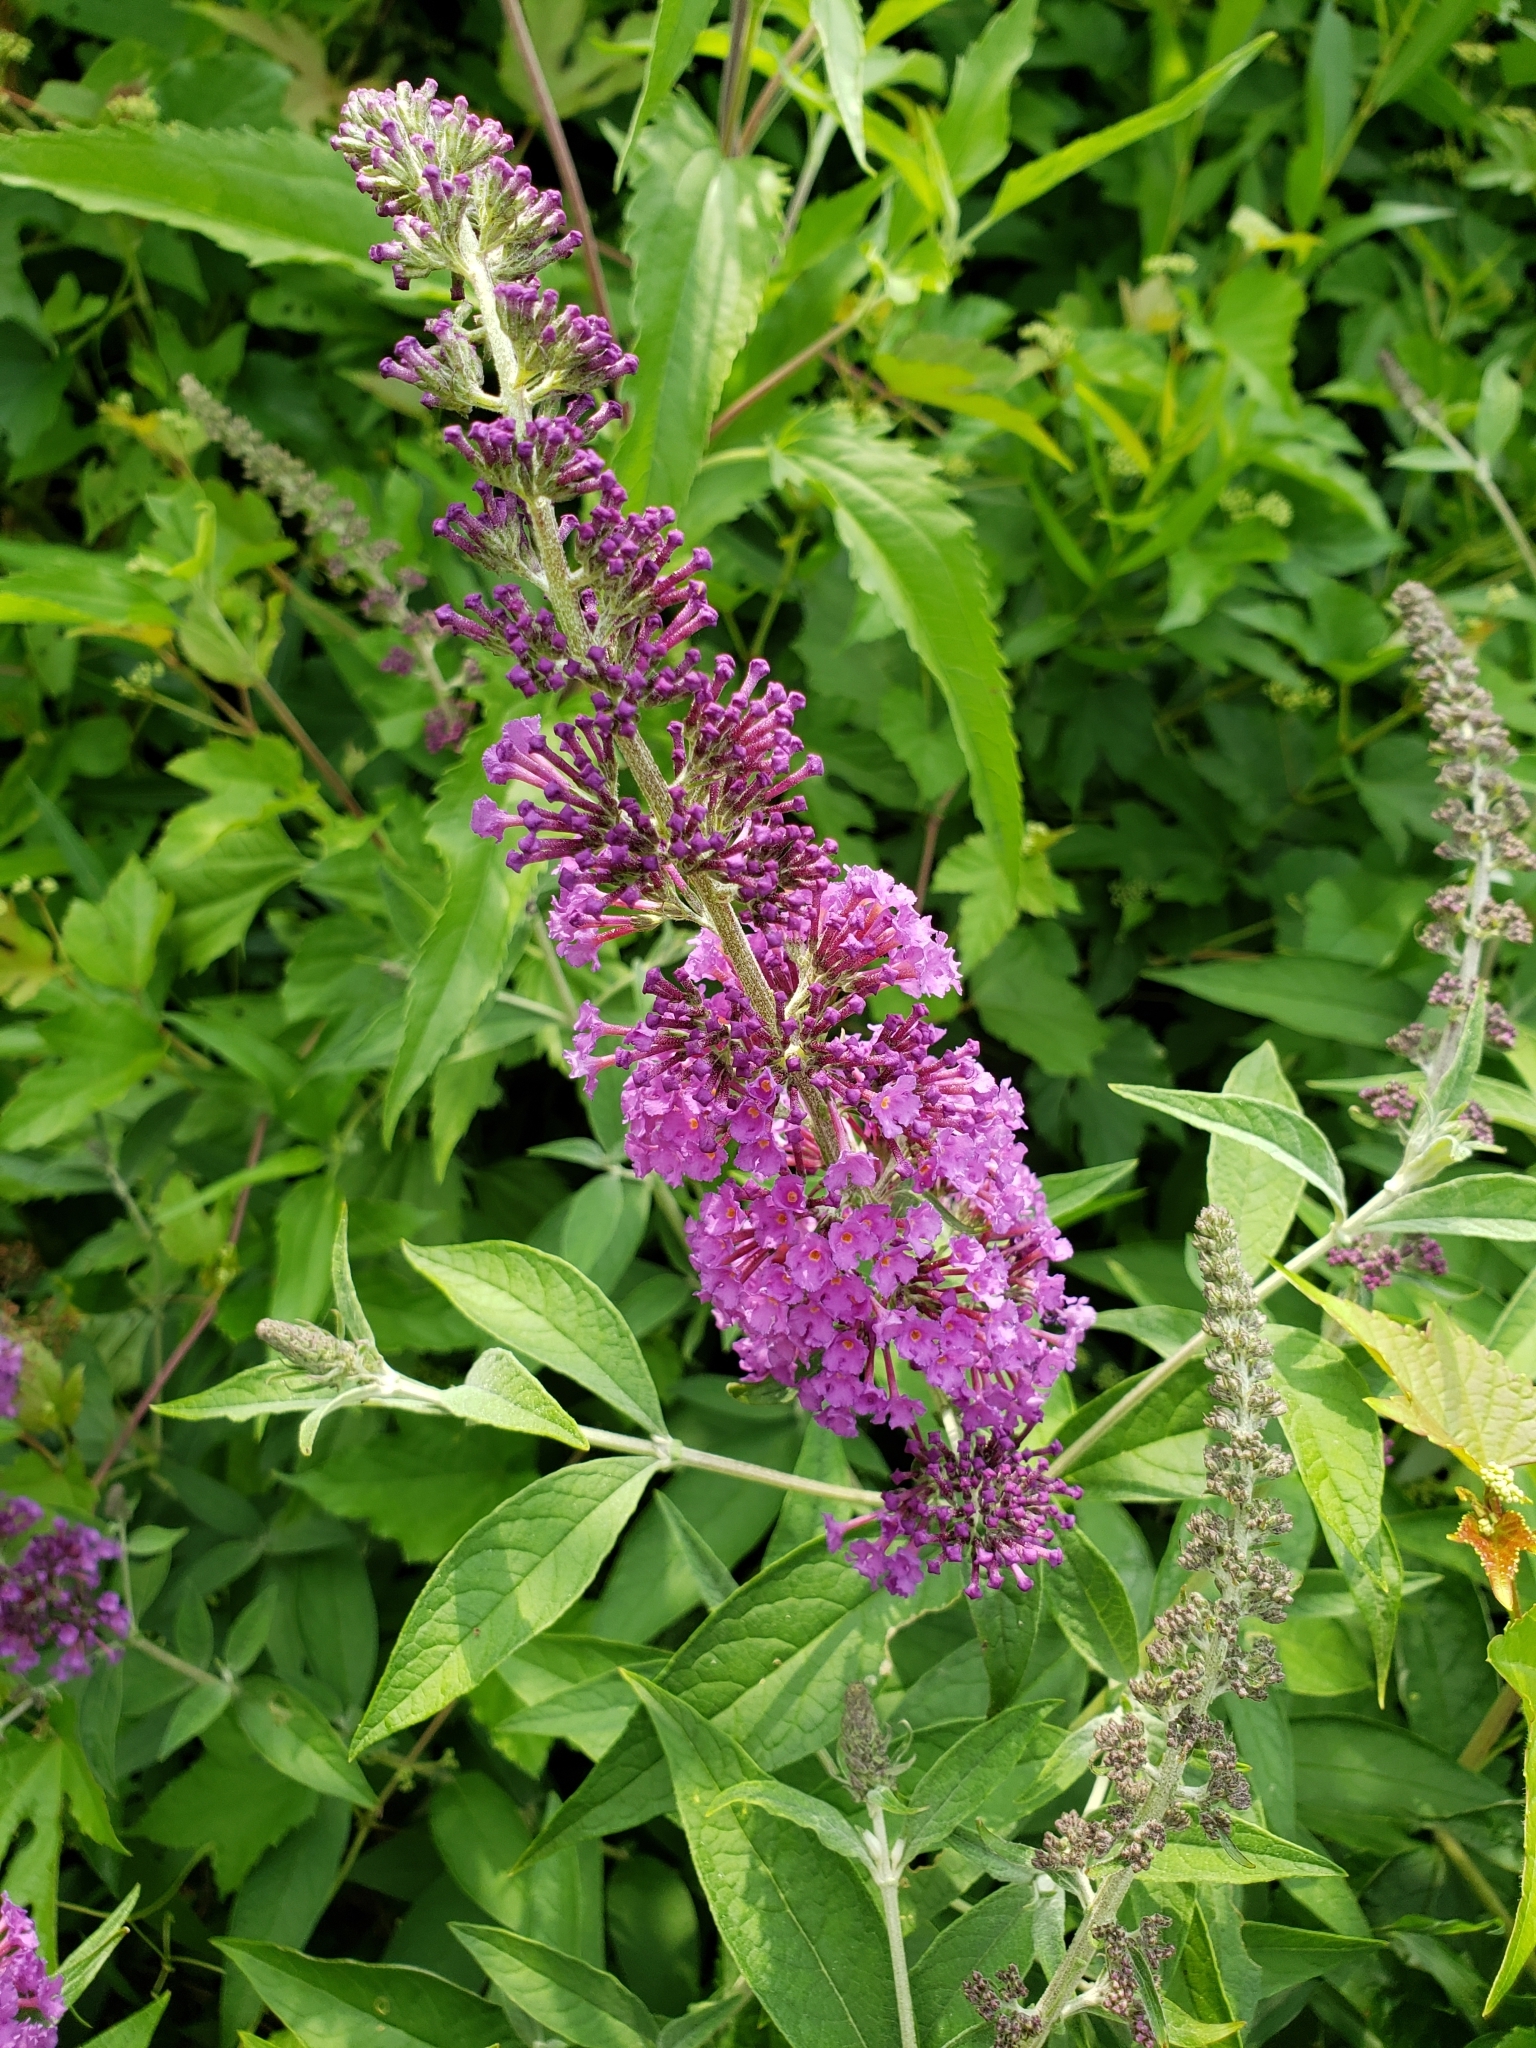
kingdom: Plantae
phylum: Tracheophyta
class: Magnoliopsida
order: Lamiales
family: Scrophulariaceae
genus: Buddleja
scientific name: Buddleja davidii
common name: Butterfly-bush
